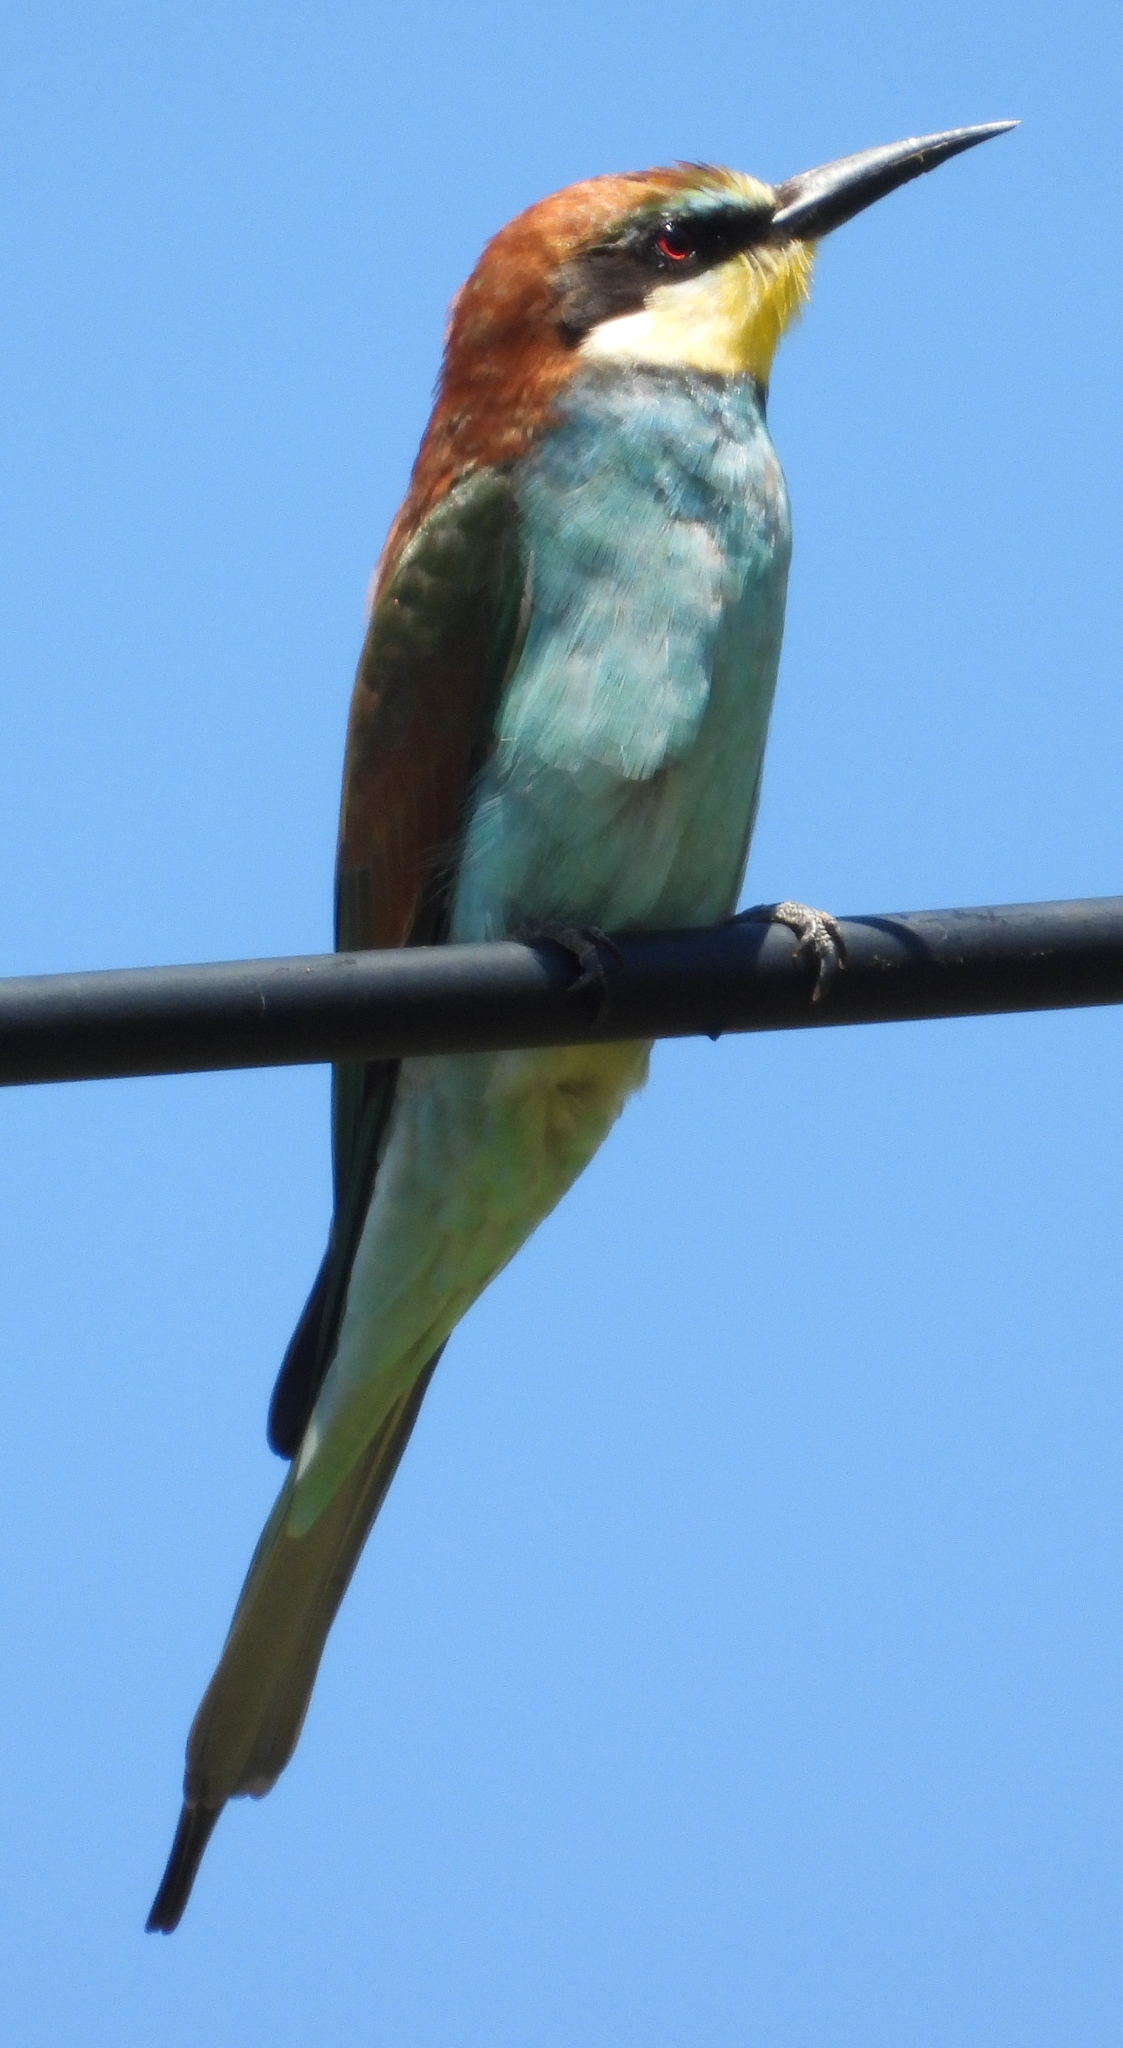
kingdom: Animalia
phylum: Chordata
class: Aves
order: Coraciiformes
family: Meropidae
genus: Merops
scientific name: Merops apiaster
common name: European bee-eater
